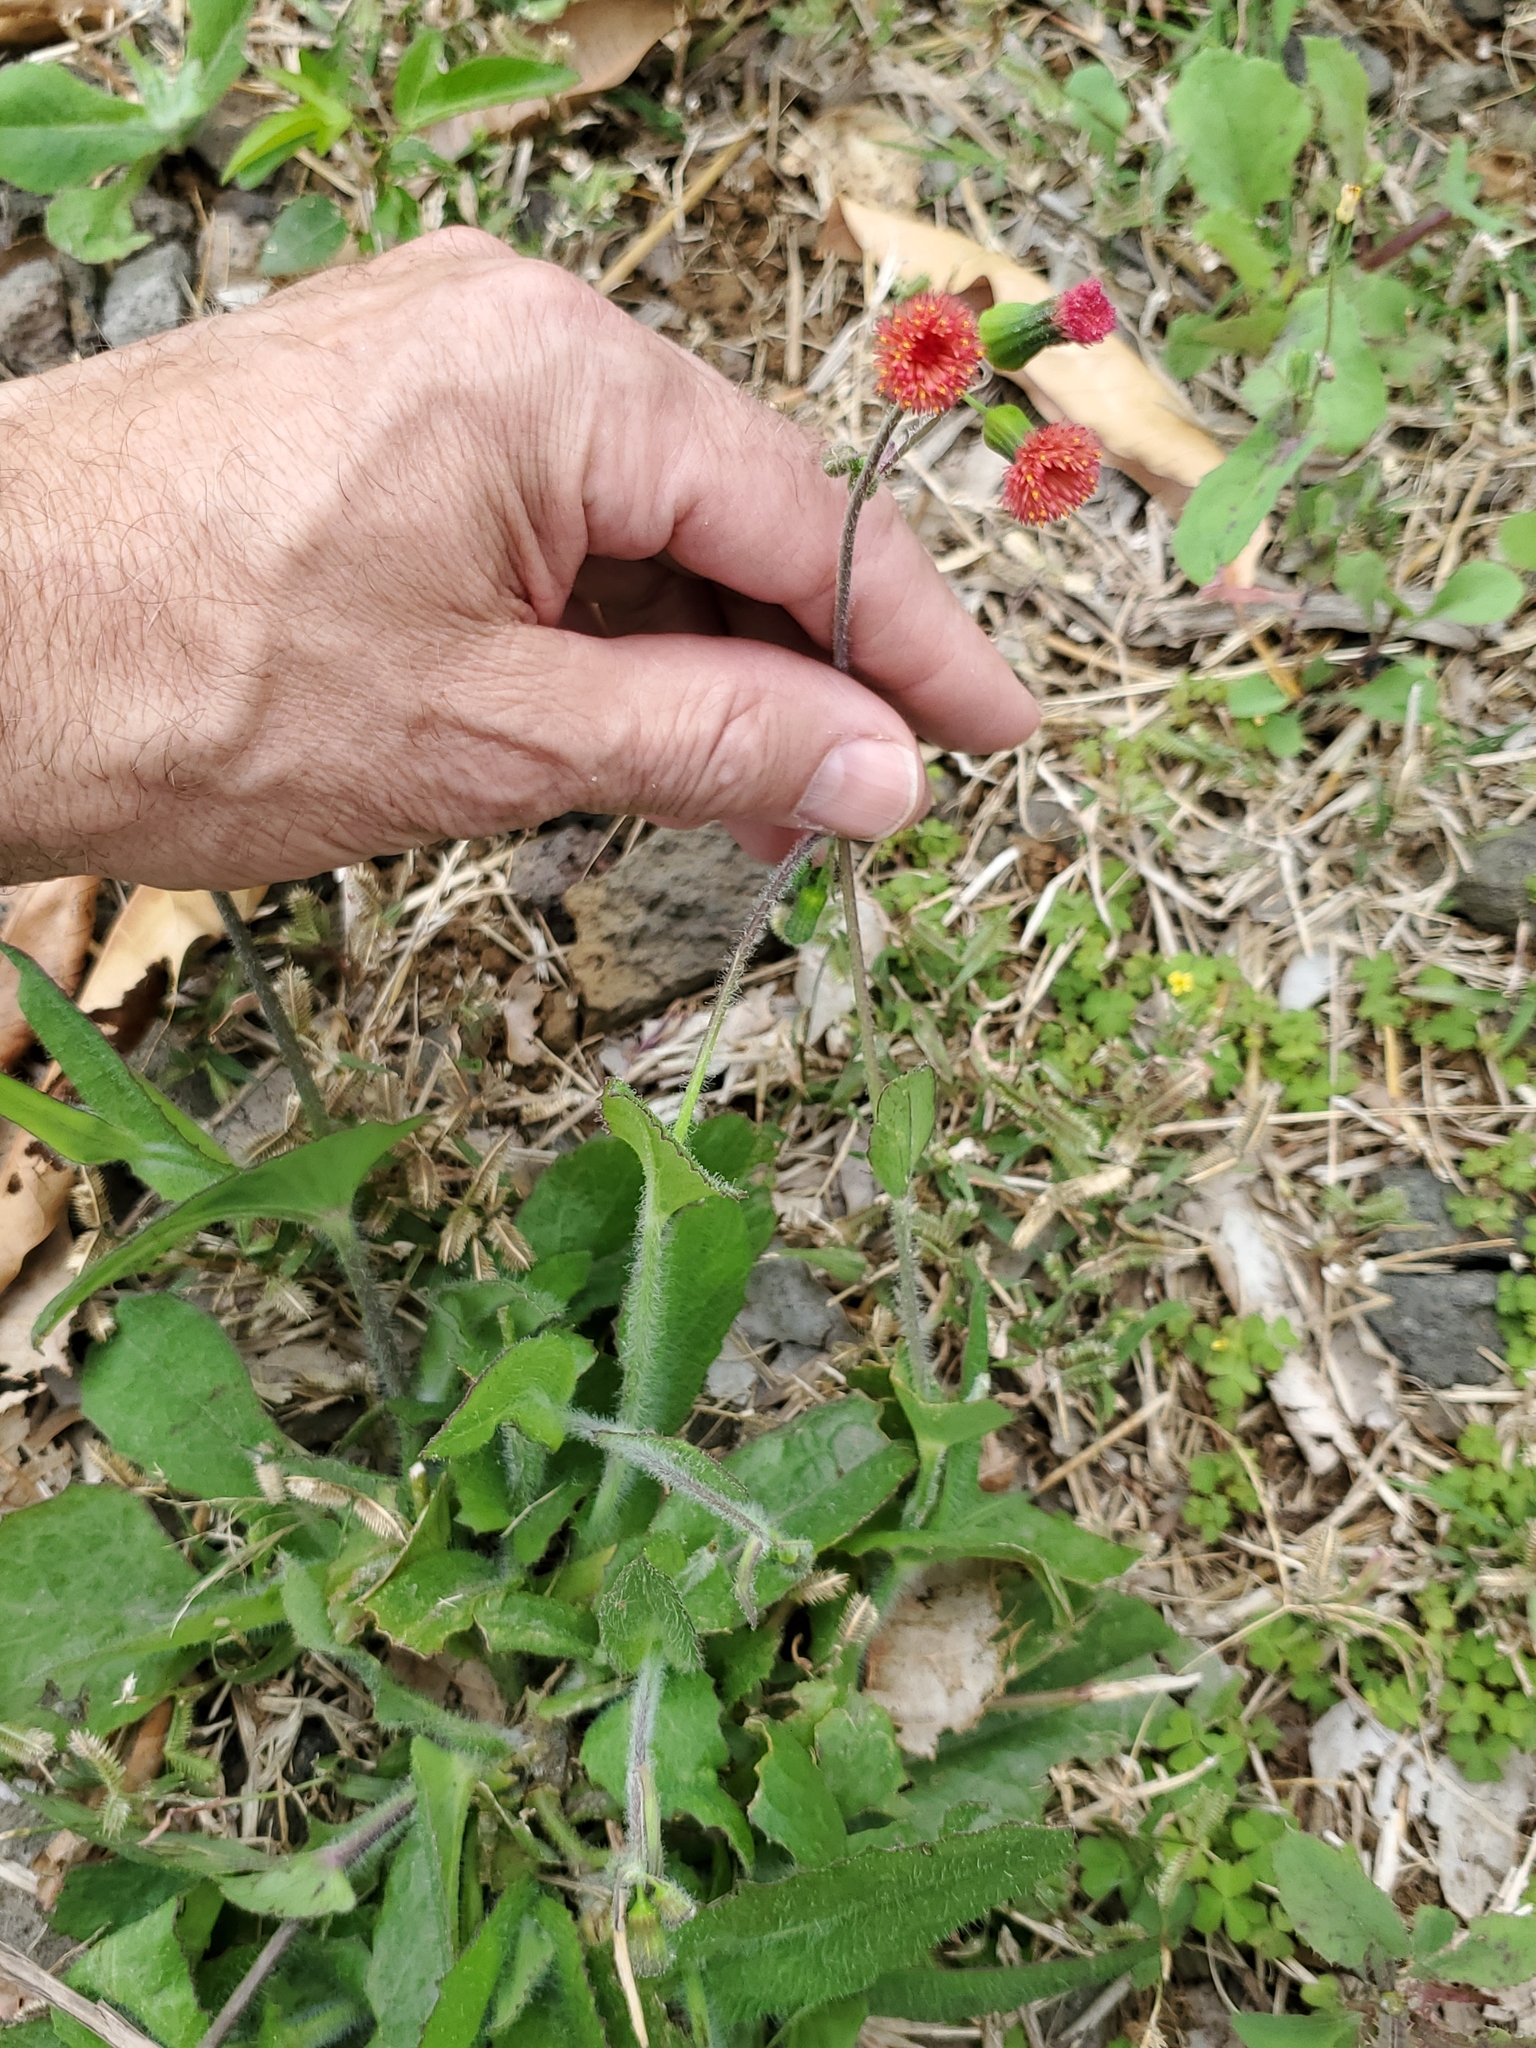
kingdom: Plantae
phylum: Tracheophyta
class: Magnoliopsida
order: Asterales
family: Asteraceae
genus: Emilia
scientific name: Emilia fosbergii
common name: Florida tasselflower
